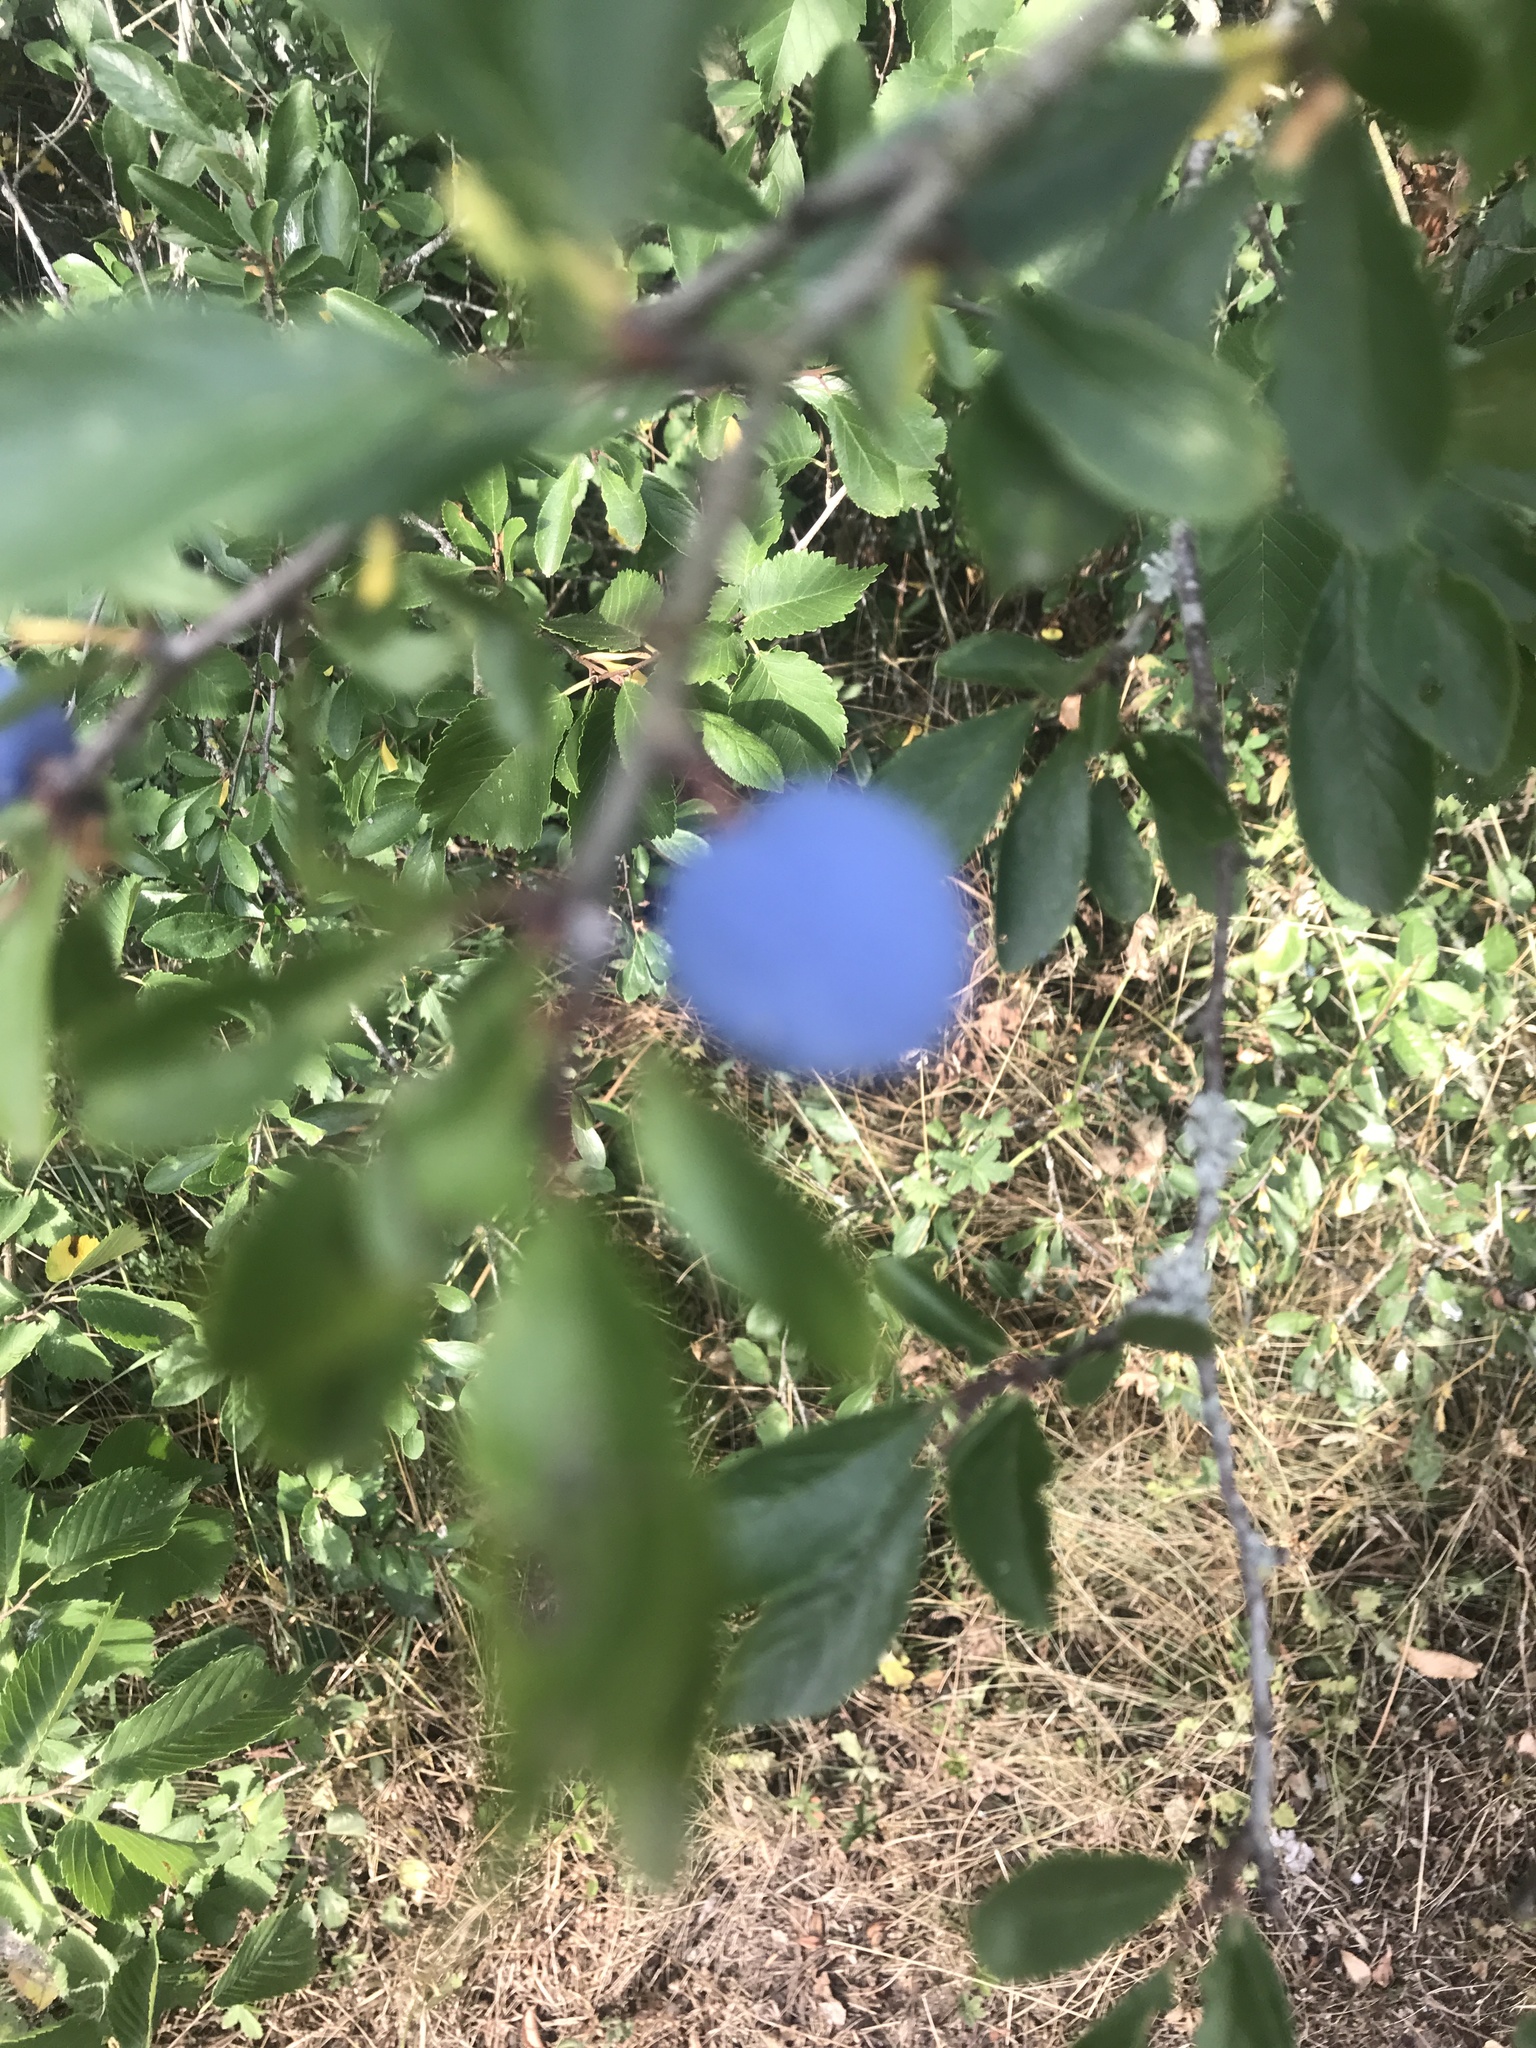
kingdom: Plantae
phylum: Tracheophyta
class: Magnoliopsida
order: Rosales
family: Rosaceae
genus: Prunus
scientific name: Prunus spinosa
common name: Blackthorn
